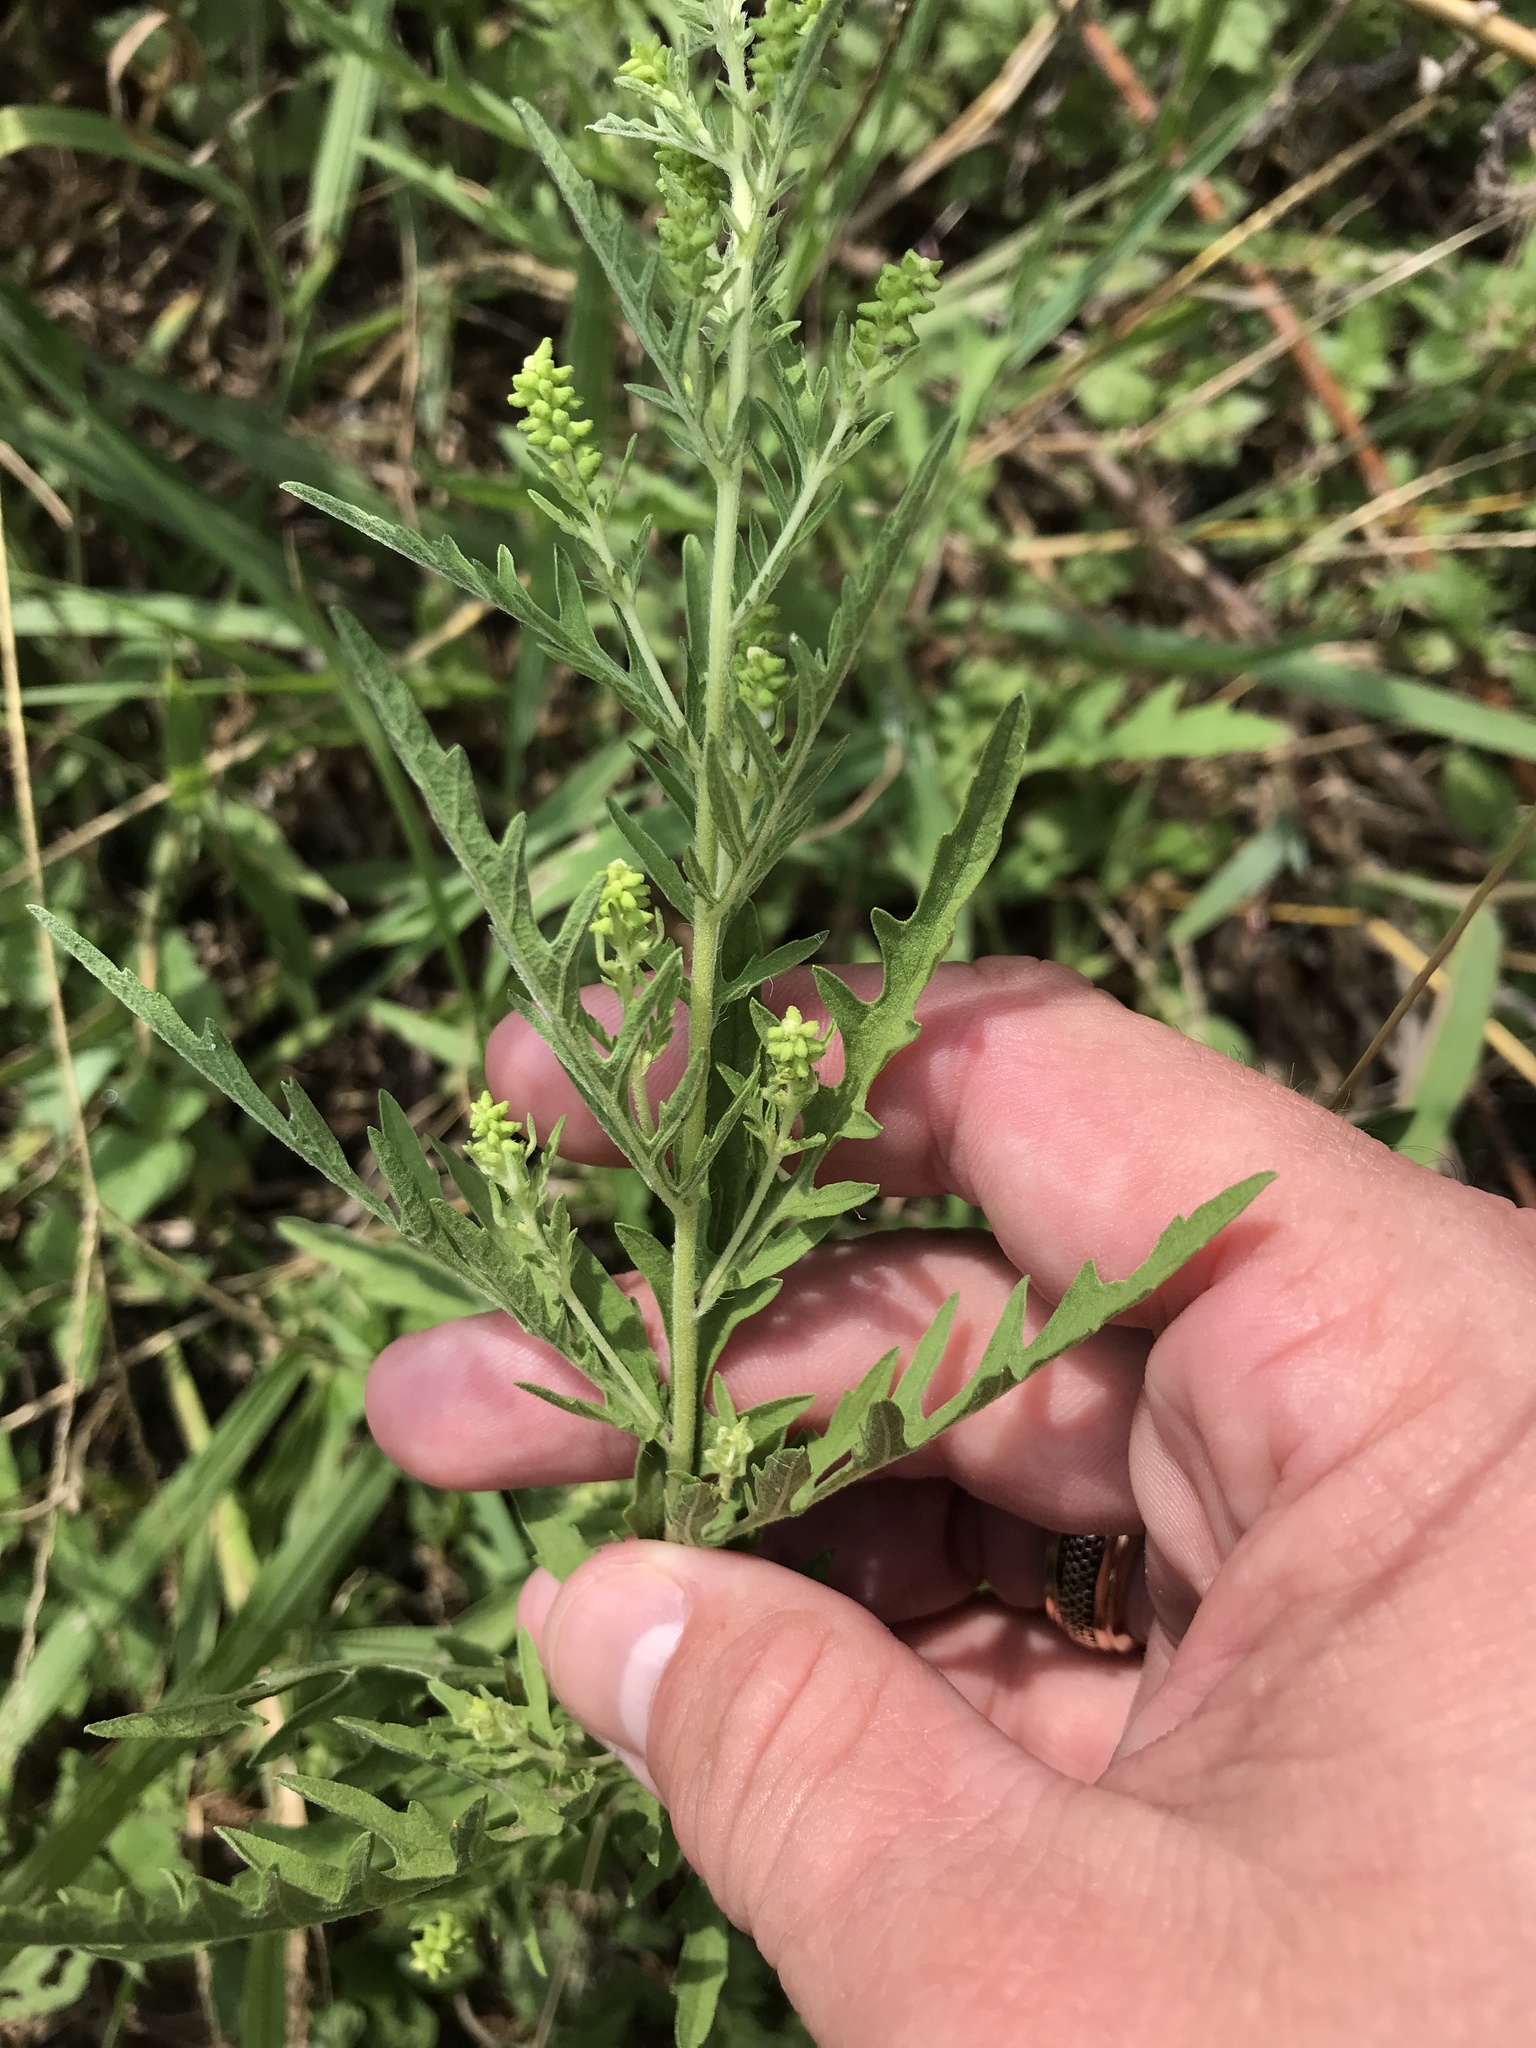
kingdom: Plantae
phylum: Tracheophyta
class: Magnoliopsida
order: Asterales
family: Asteraceae
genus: Ambrosia
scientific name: Ambrosia psilostachya
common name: Perennial ragweed
